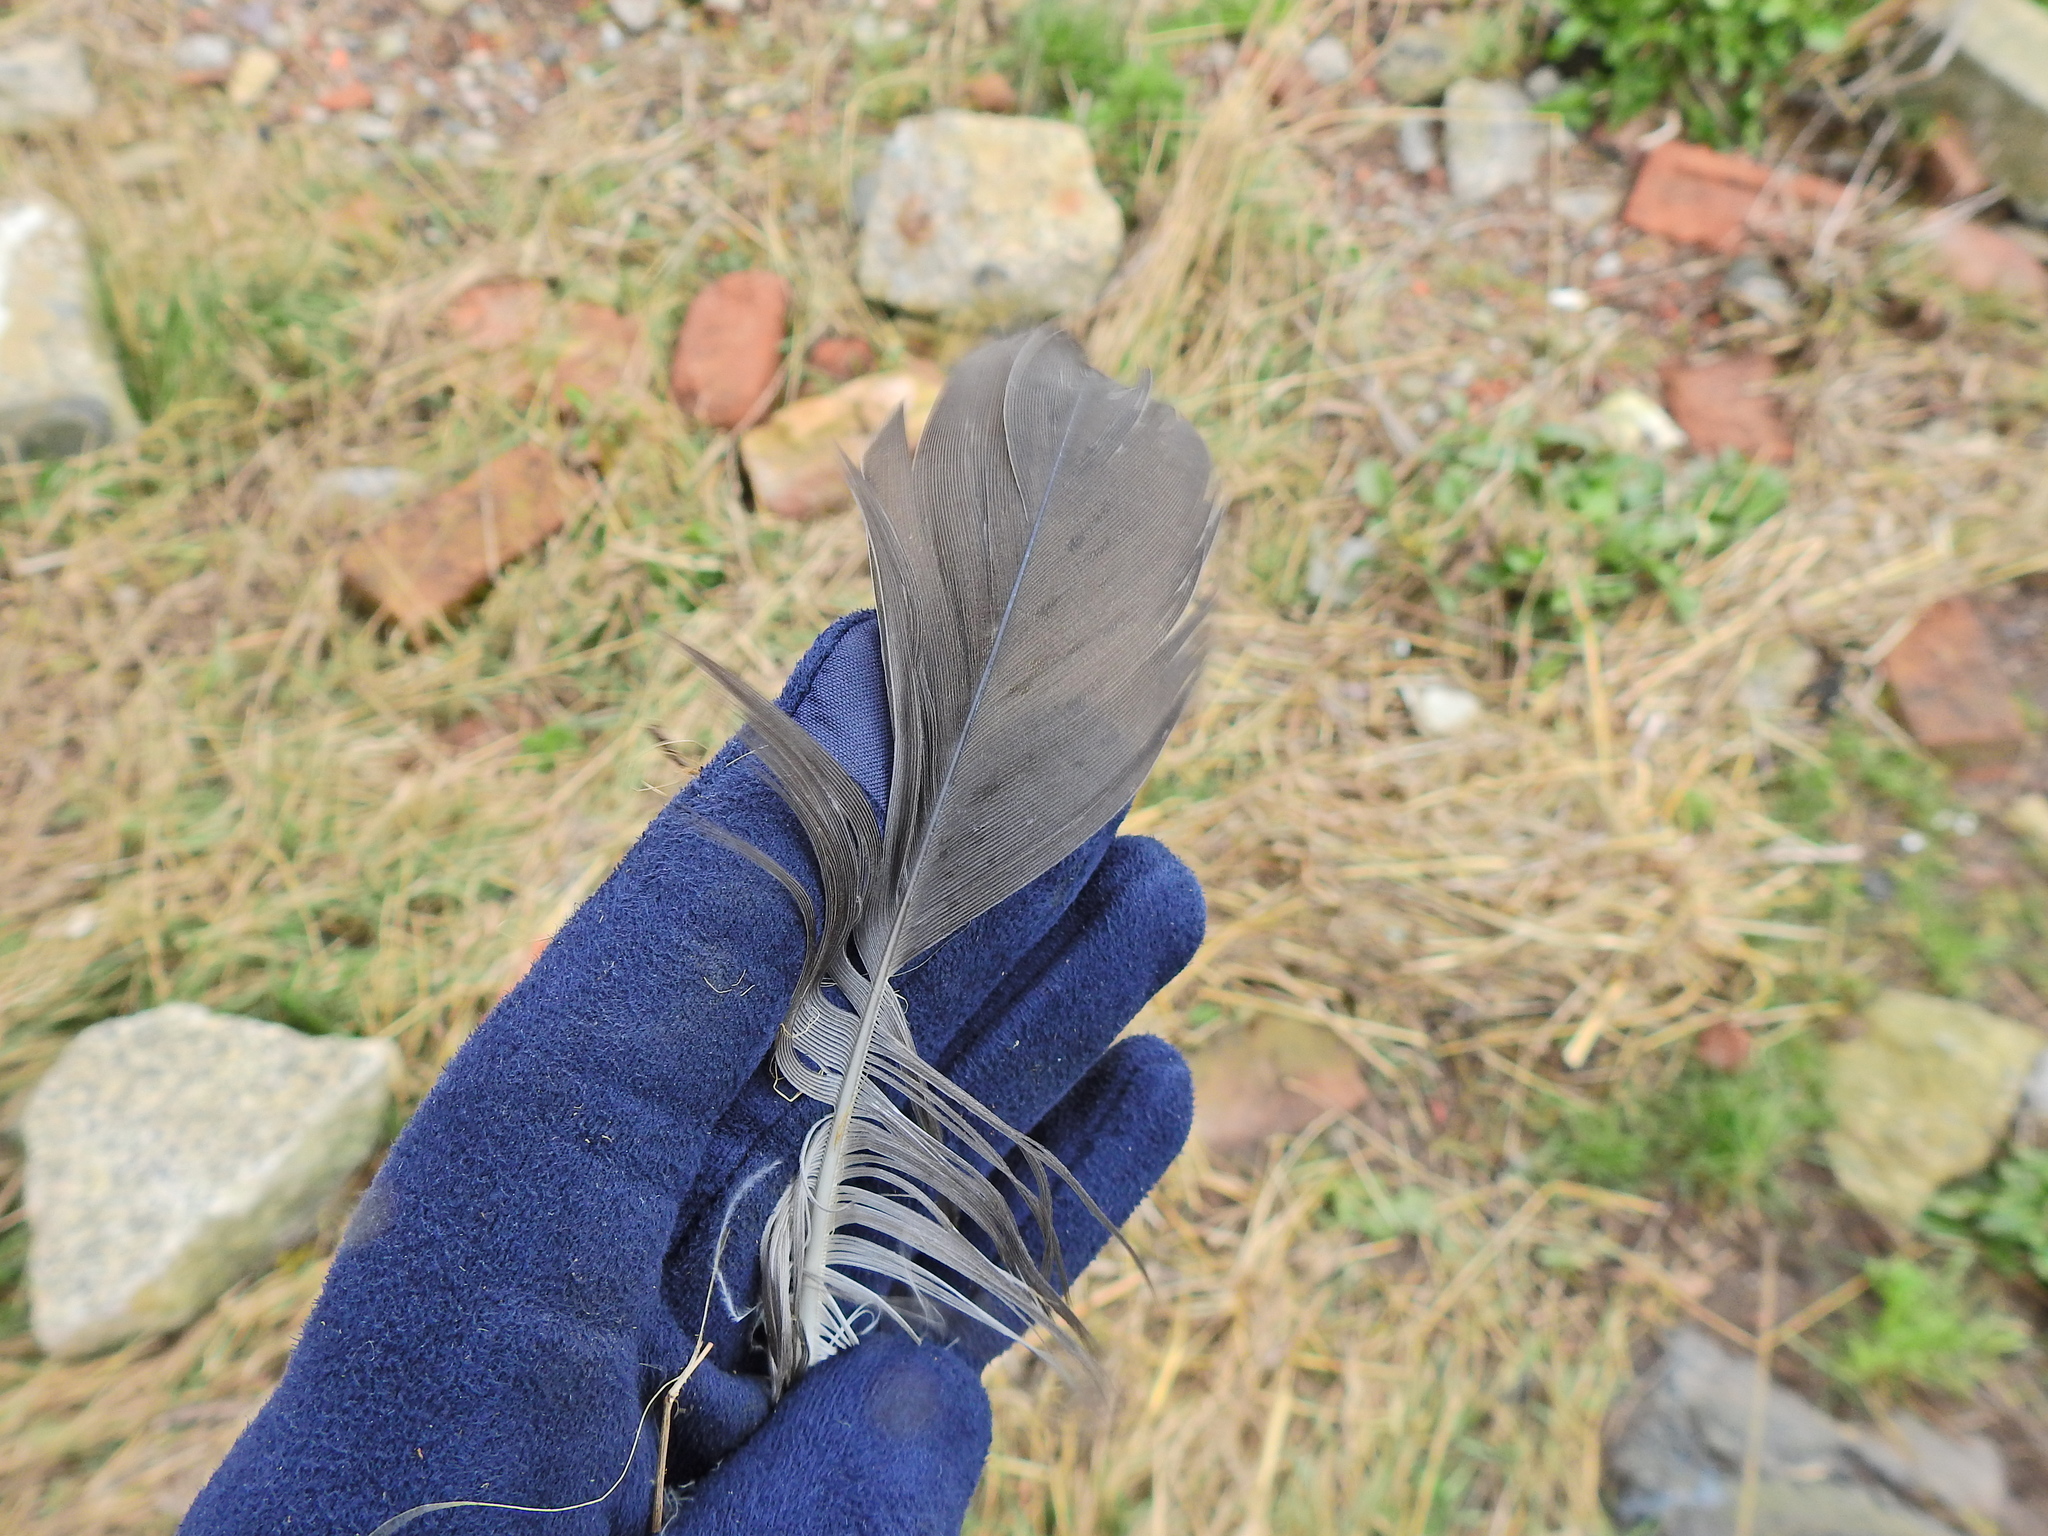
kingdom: Animalia
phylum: Chordata
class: Aves
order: Charadriiformes
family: Laridae
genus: Larus
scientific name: Larus fuscus
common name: Lesser black-backed gull
